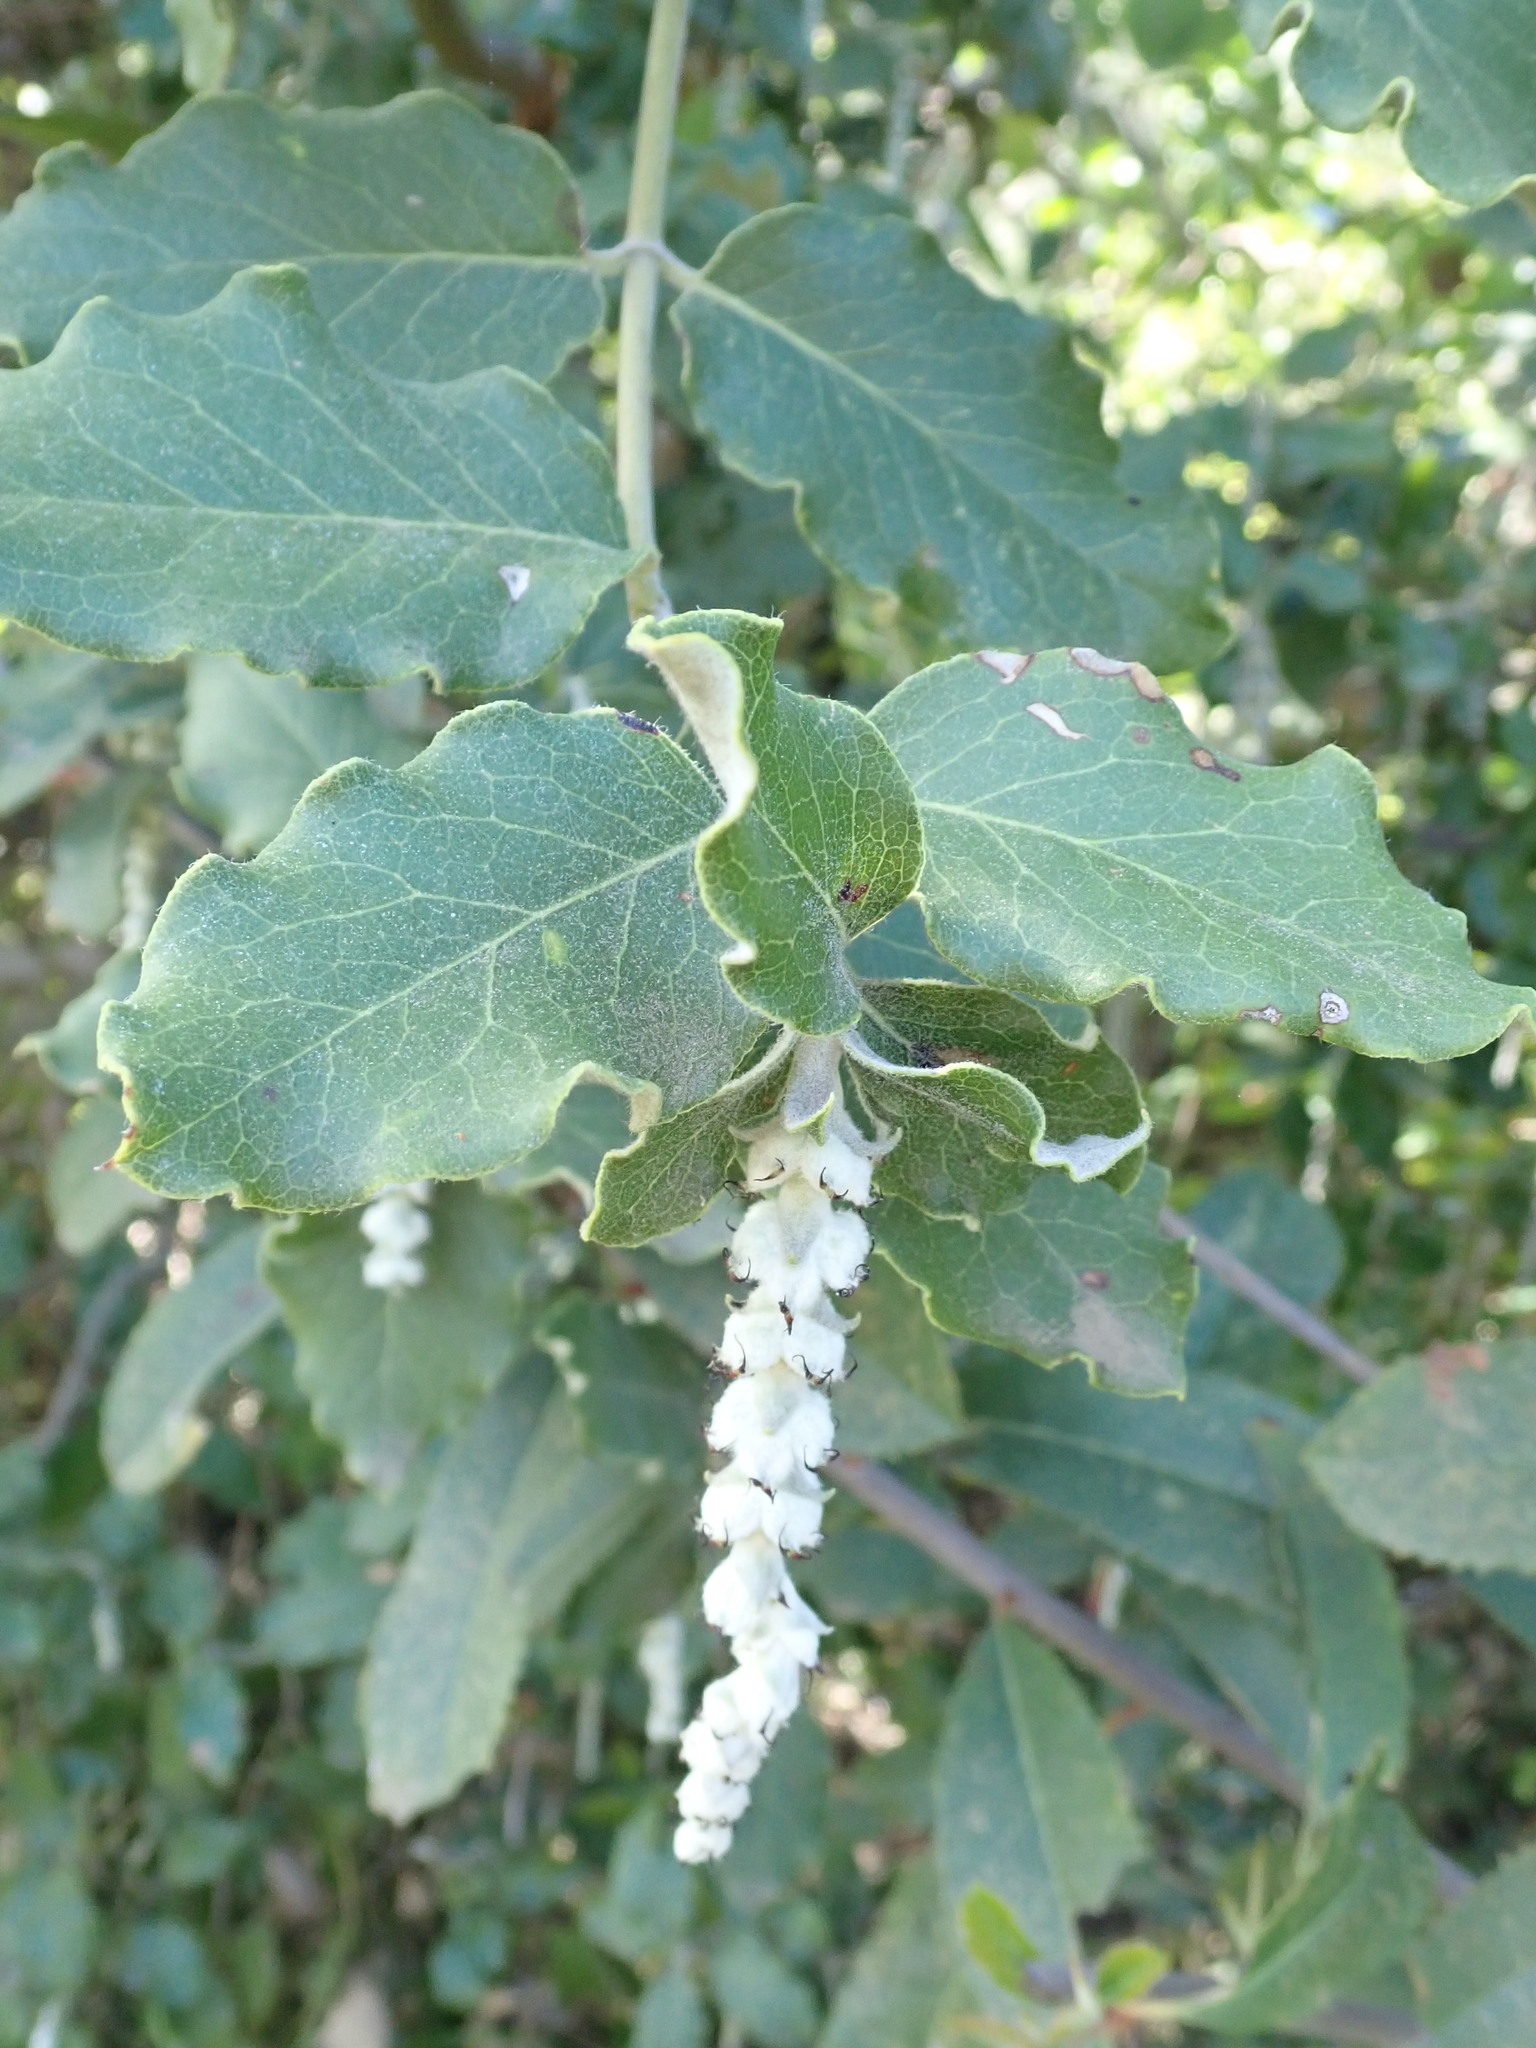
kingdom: Plantae
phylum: Tracheophyta
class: Magnoliopsida
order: Garryales
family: Garryaceae
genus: Garrya
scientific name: Garrya elliptica
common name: Silk-tassel
